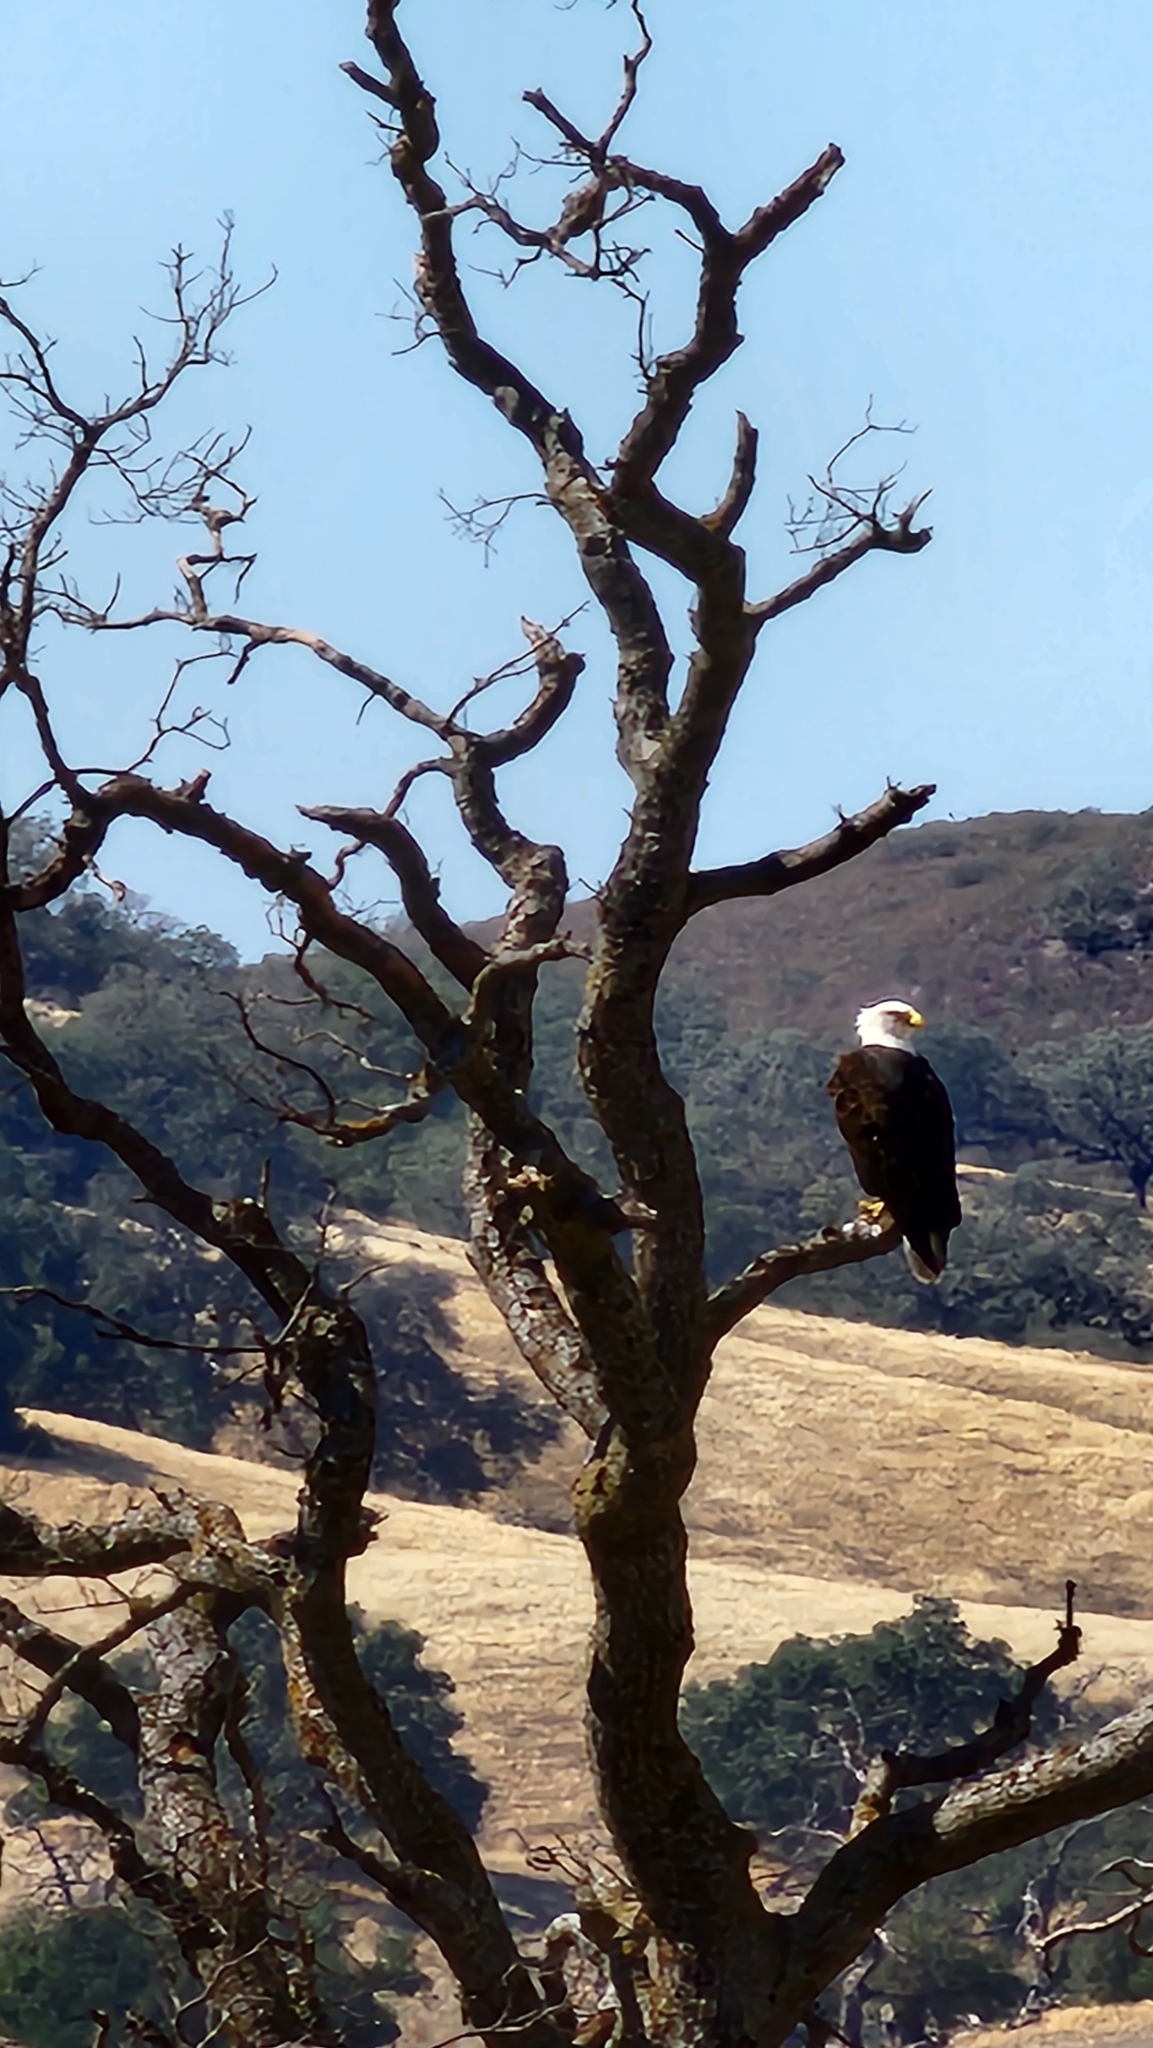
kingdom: Animalia
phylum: Chordata
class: Aves
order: Accipitriformes
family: Accipitridae
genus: Haliaeetus
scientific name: Haliaeetus leucocephalus
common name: Bald eagle
